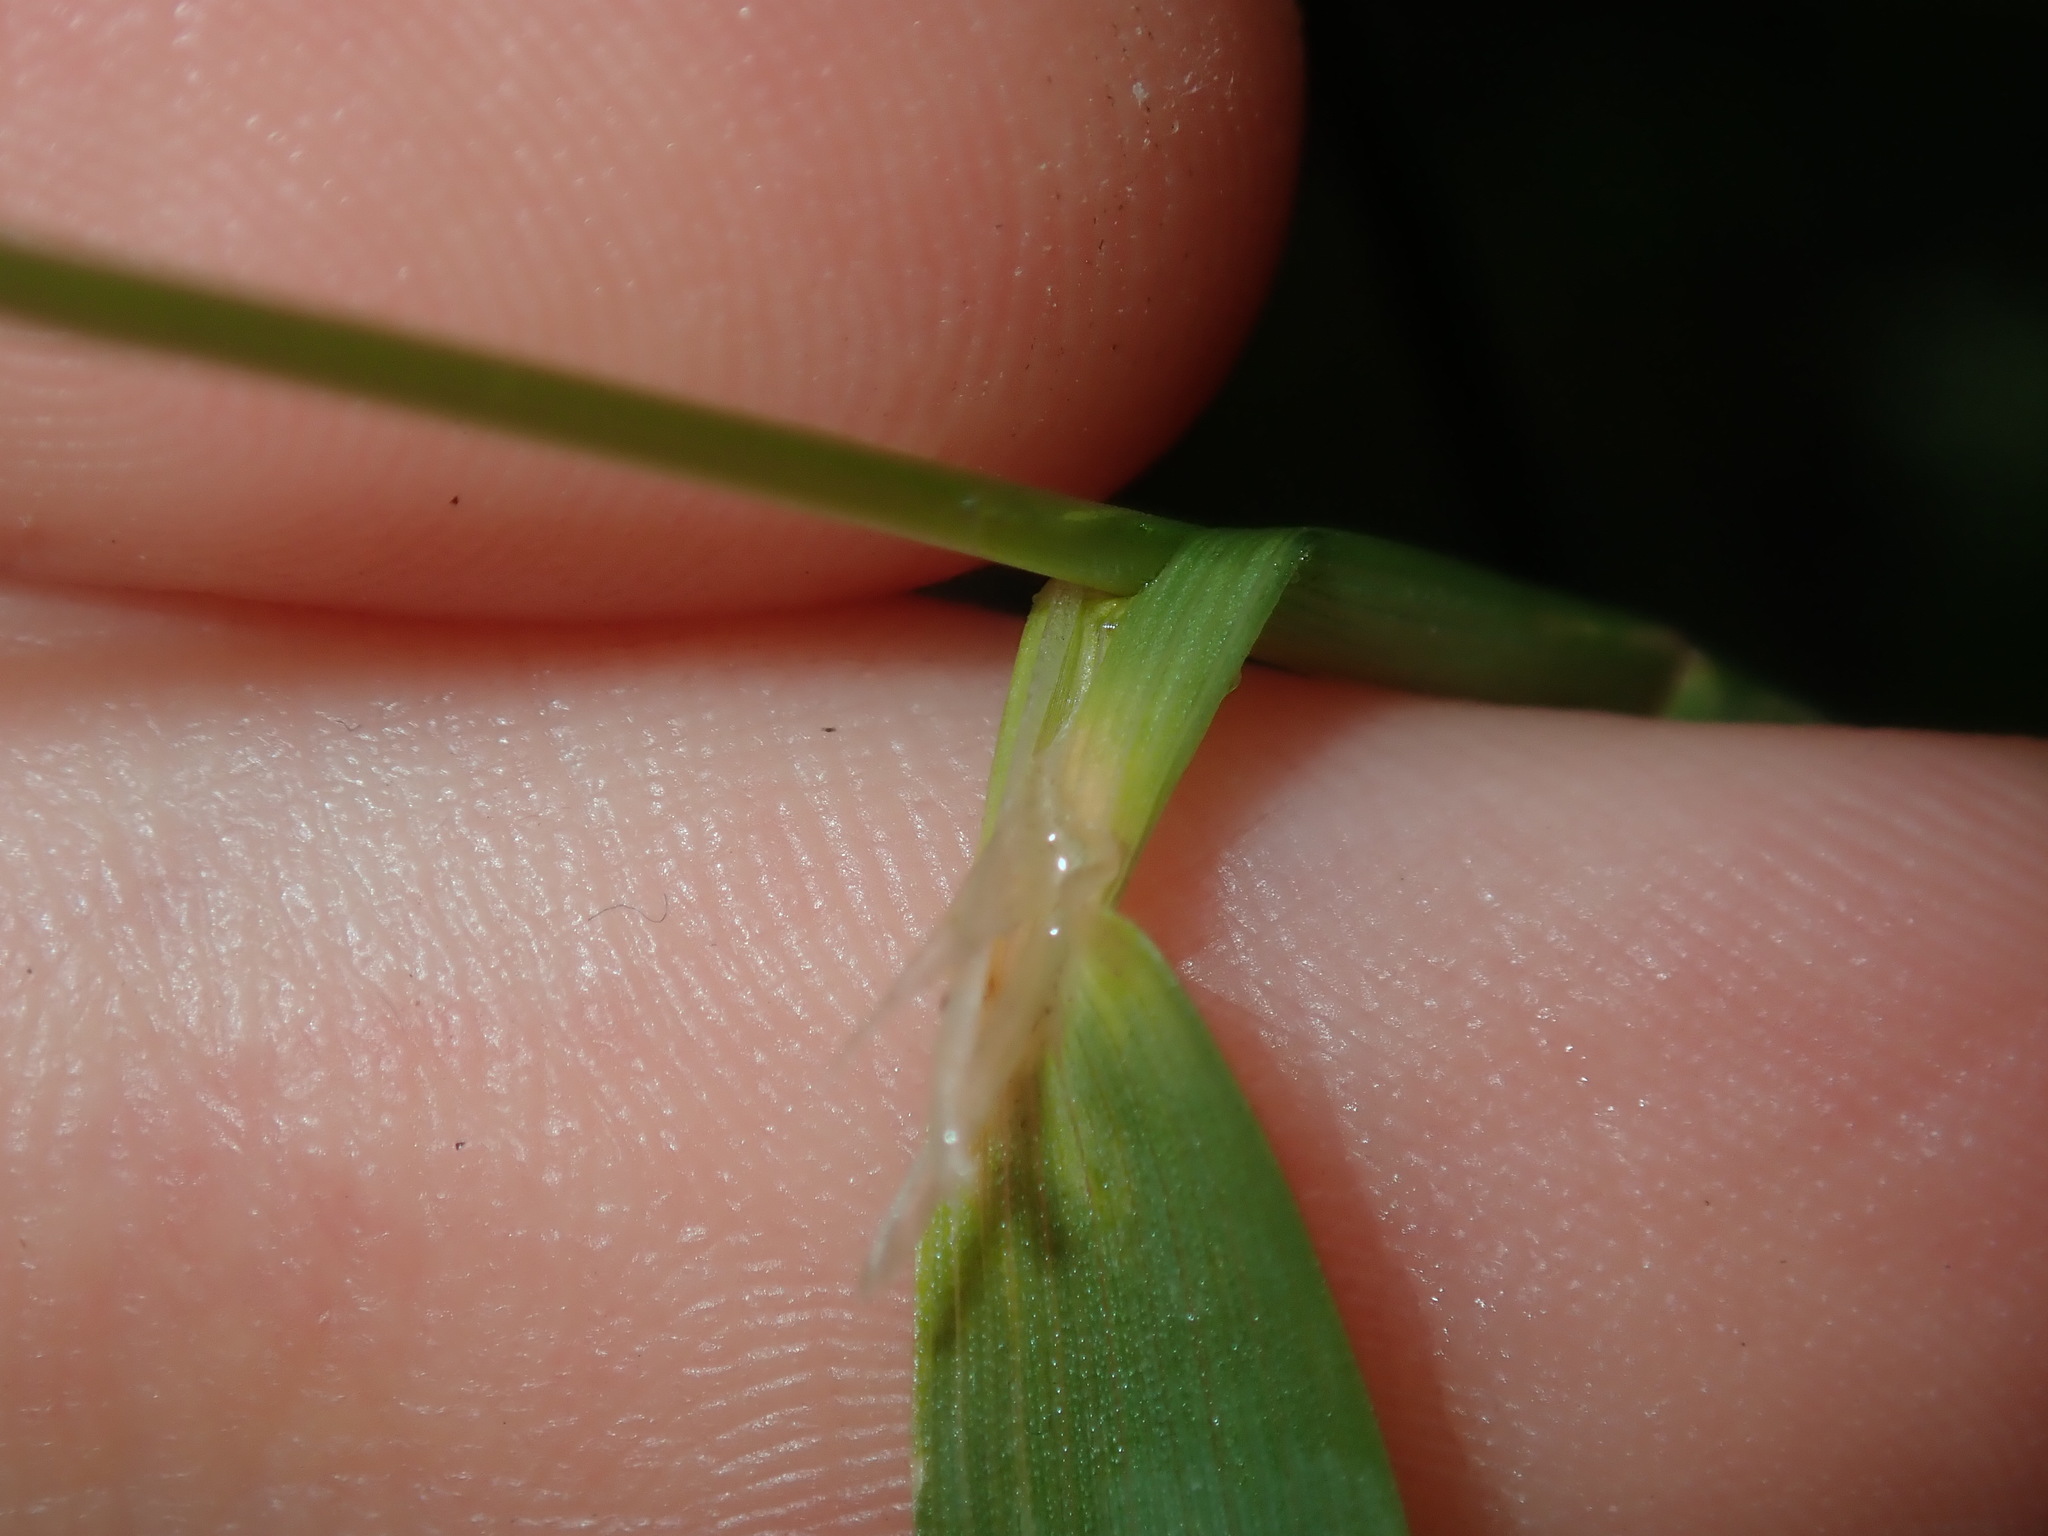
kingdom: Plantae
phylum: Tracheophyta
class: Liliopsida
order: Poales
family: Poaceae
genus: Agropogon
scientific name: Agropogon lutosus
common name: Coast agropogon
